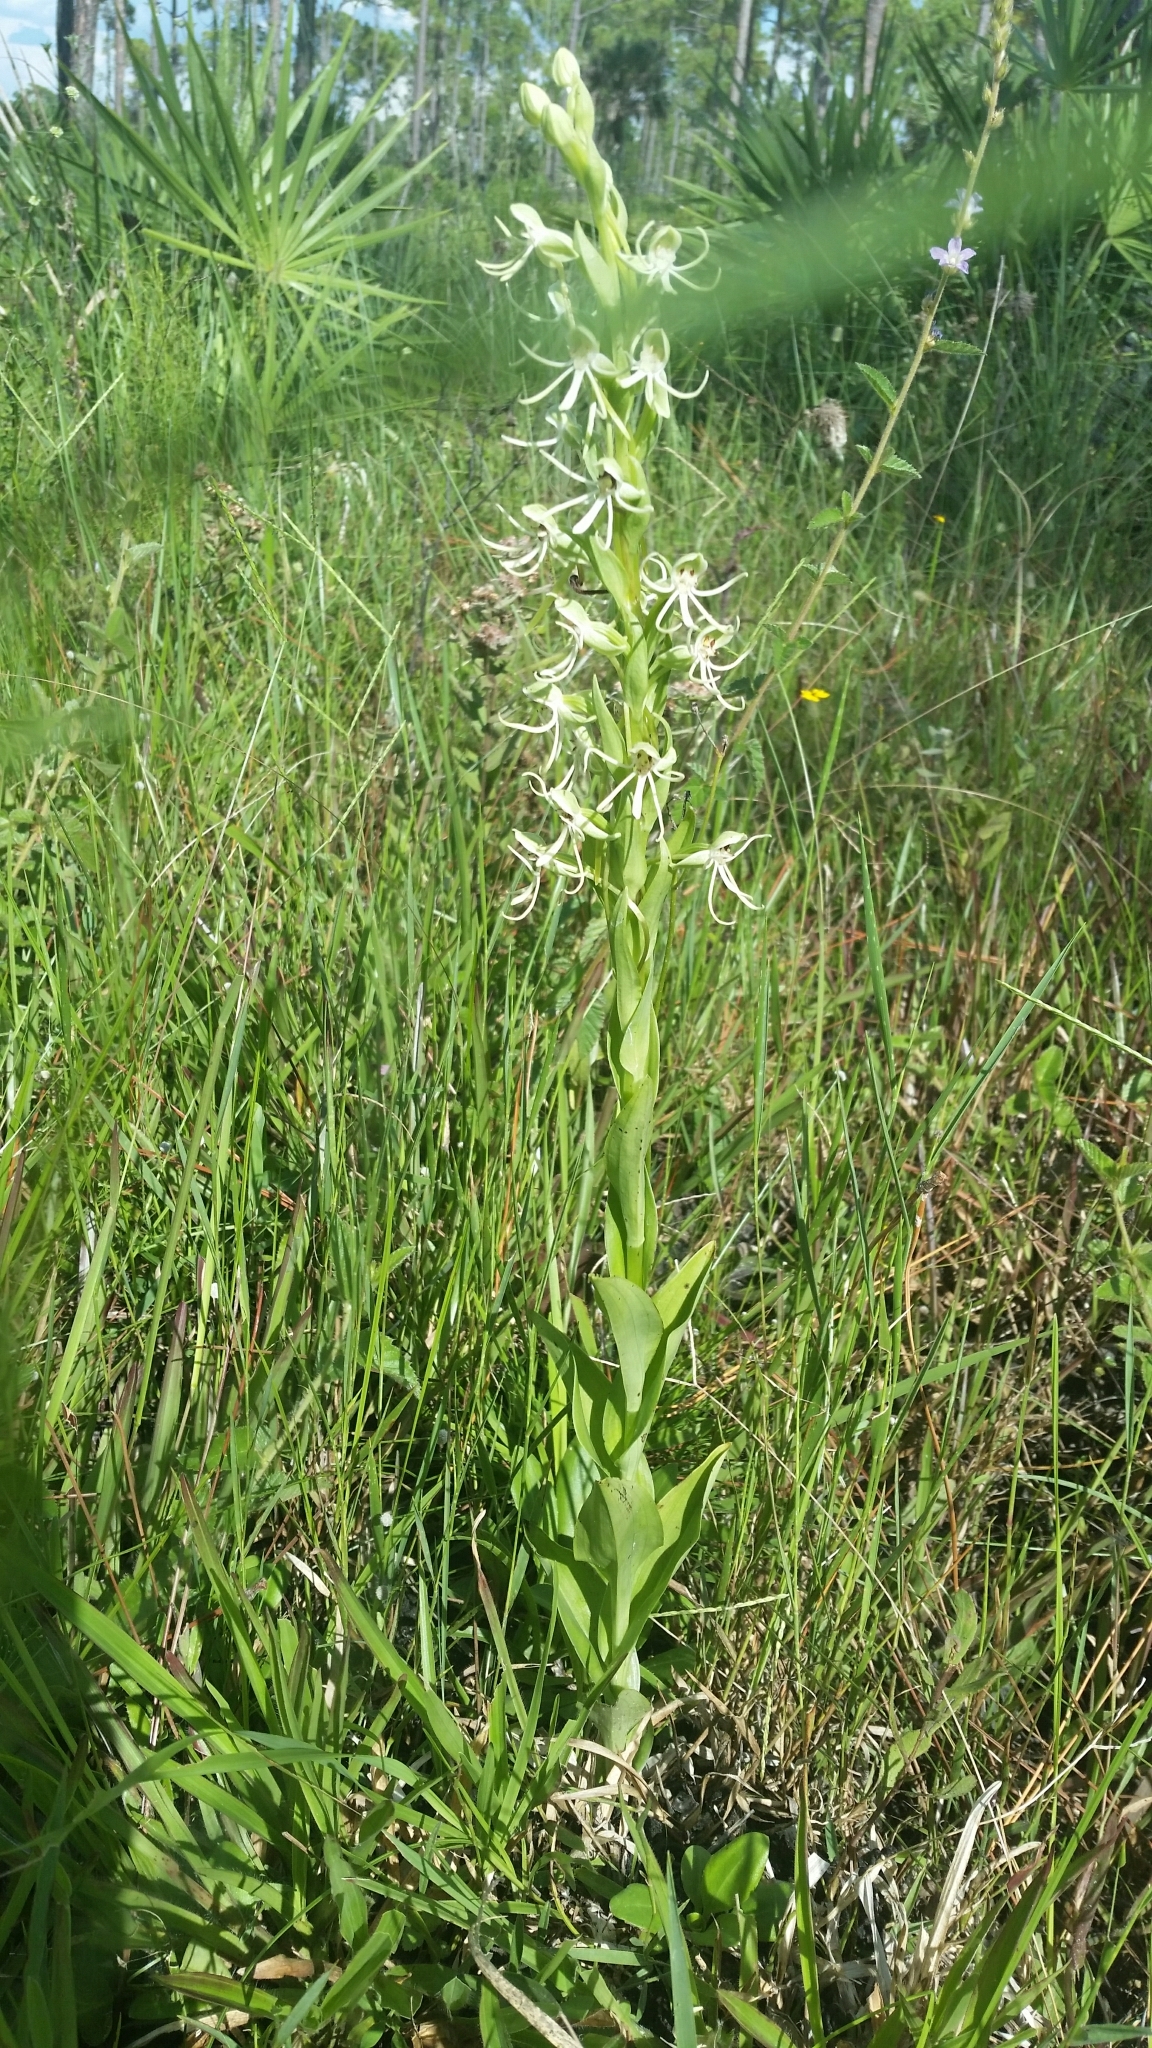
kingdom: Plantae
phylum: Tracheophyta
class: Liliopsida
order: Asparagales
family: Orchidaceae
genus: Habenaria
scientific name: Habenaria macroceratitis
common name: Big-horn bog orchid
